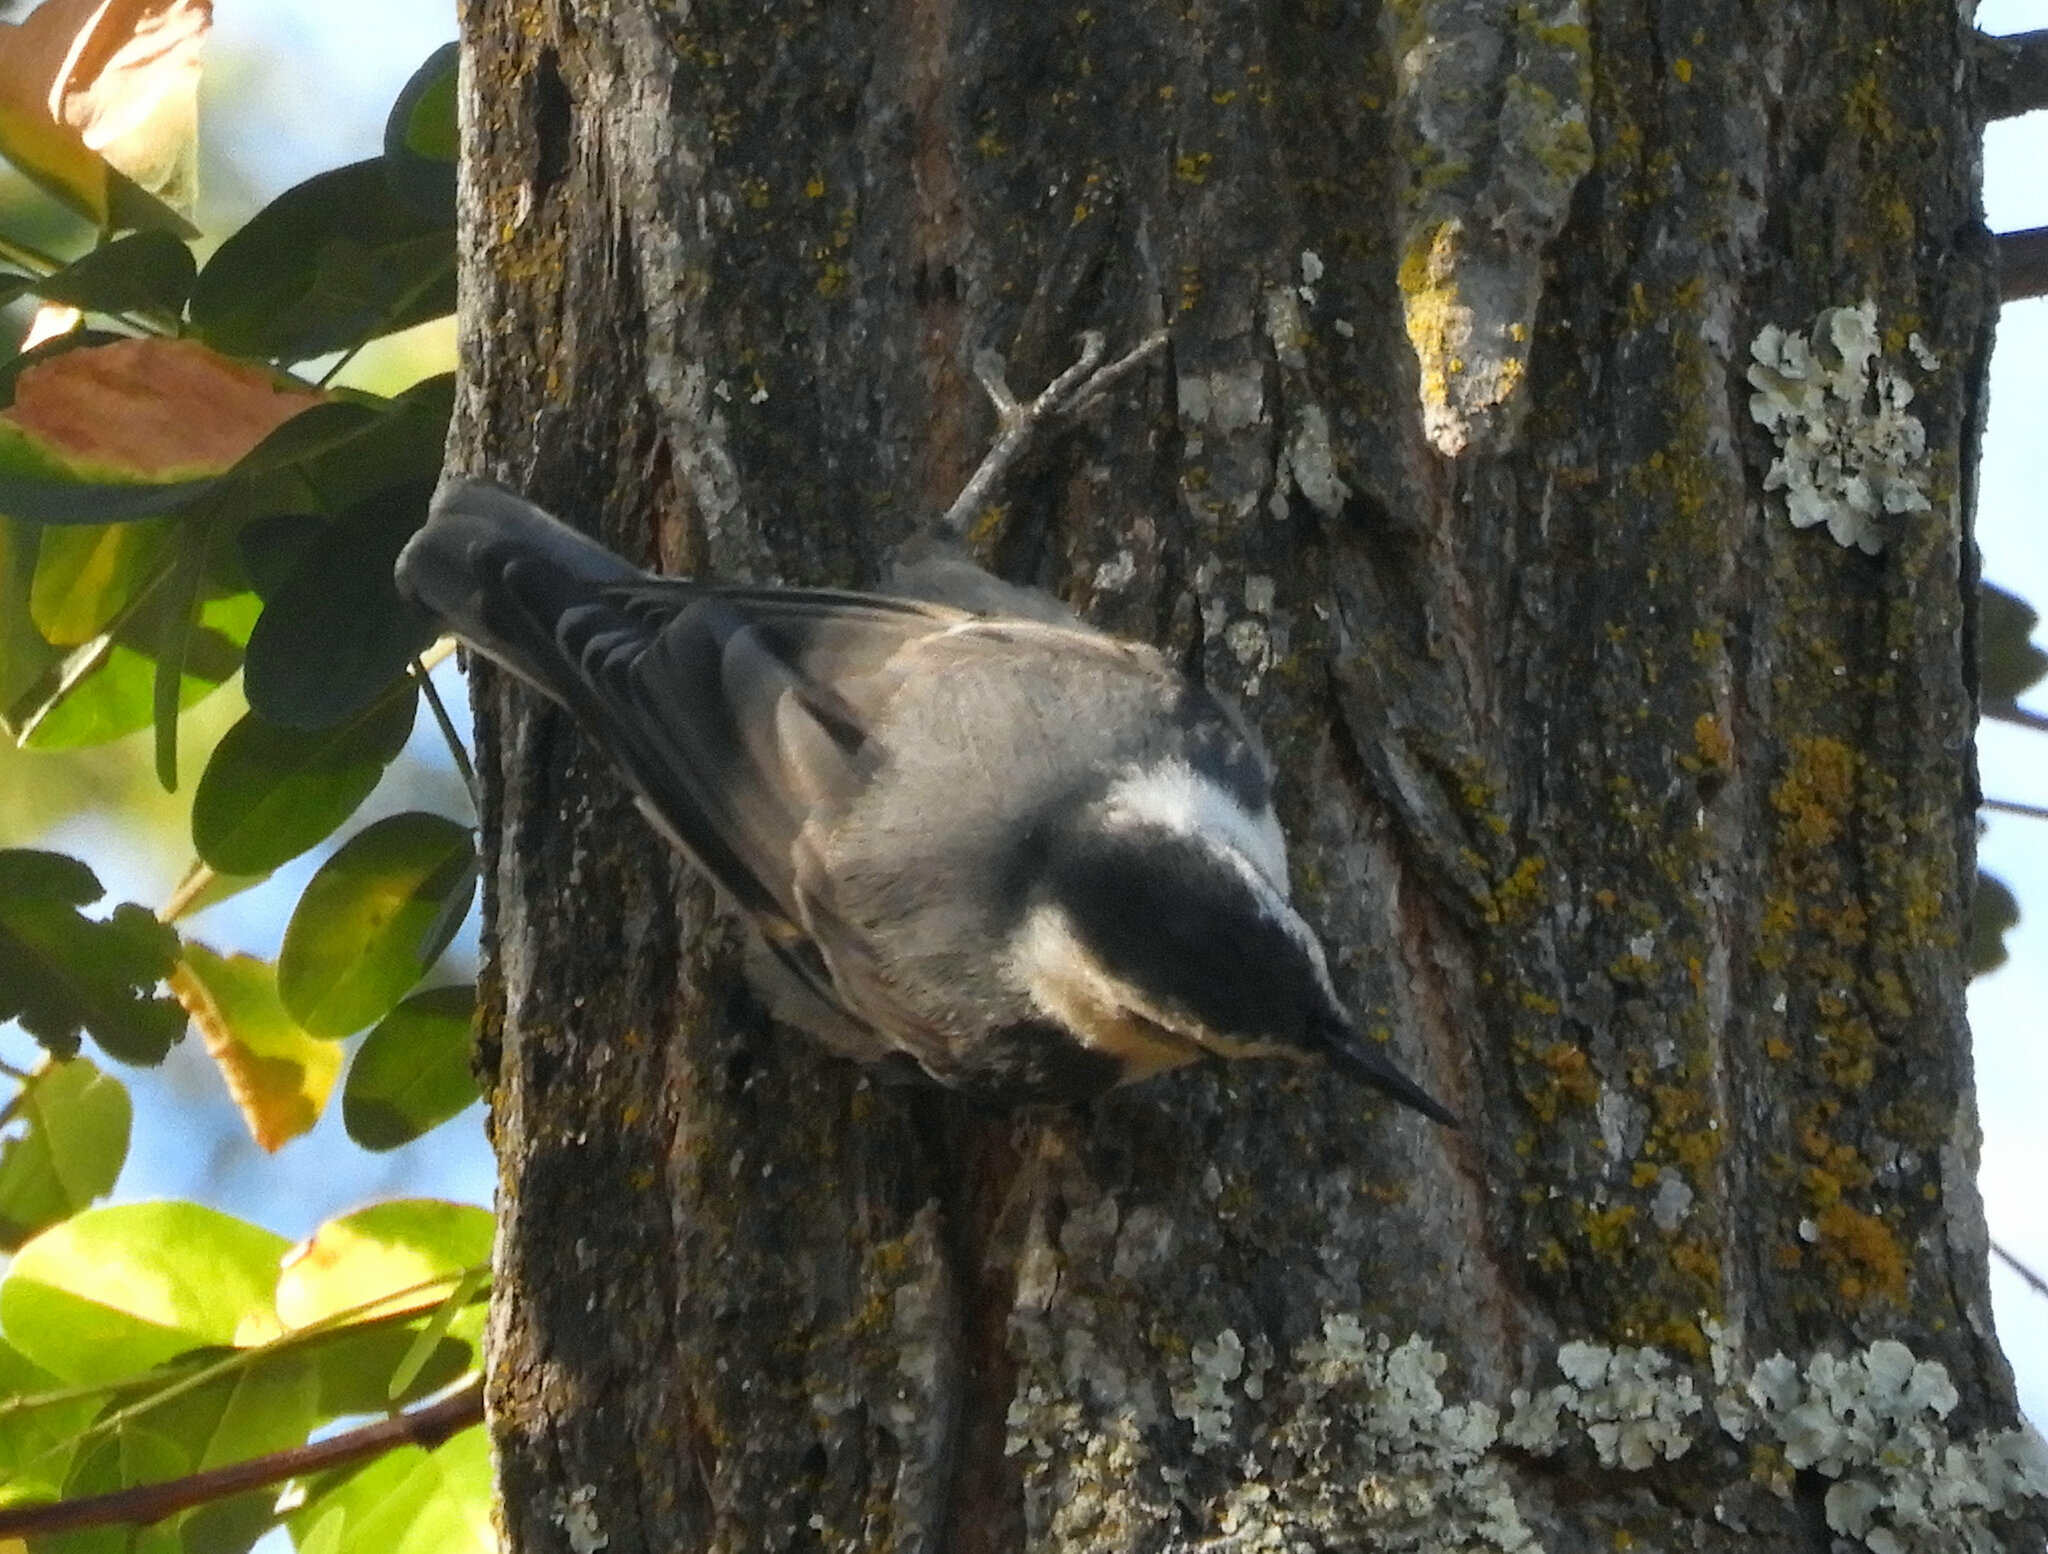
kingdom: Animalia
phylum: Chordata
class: Aves
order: Passeriformes
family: Sittidae
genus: Sitta
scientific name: Sitta carolinensis
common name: White-breasted nuthatch
